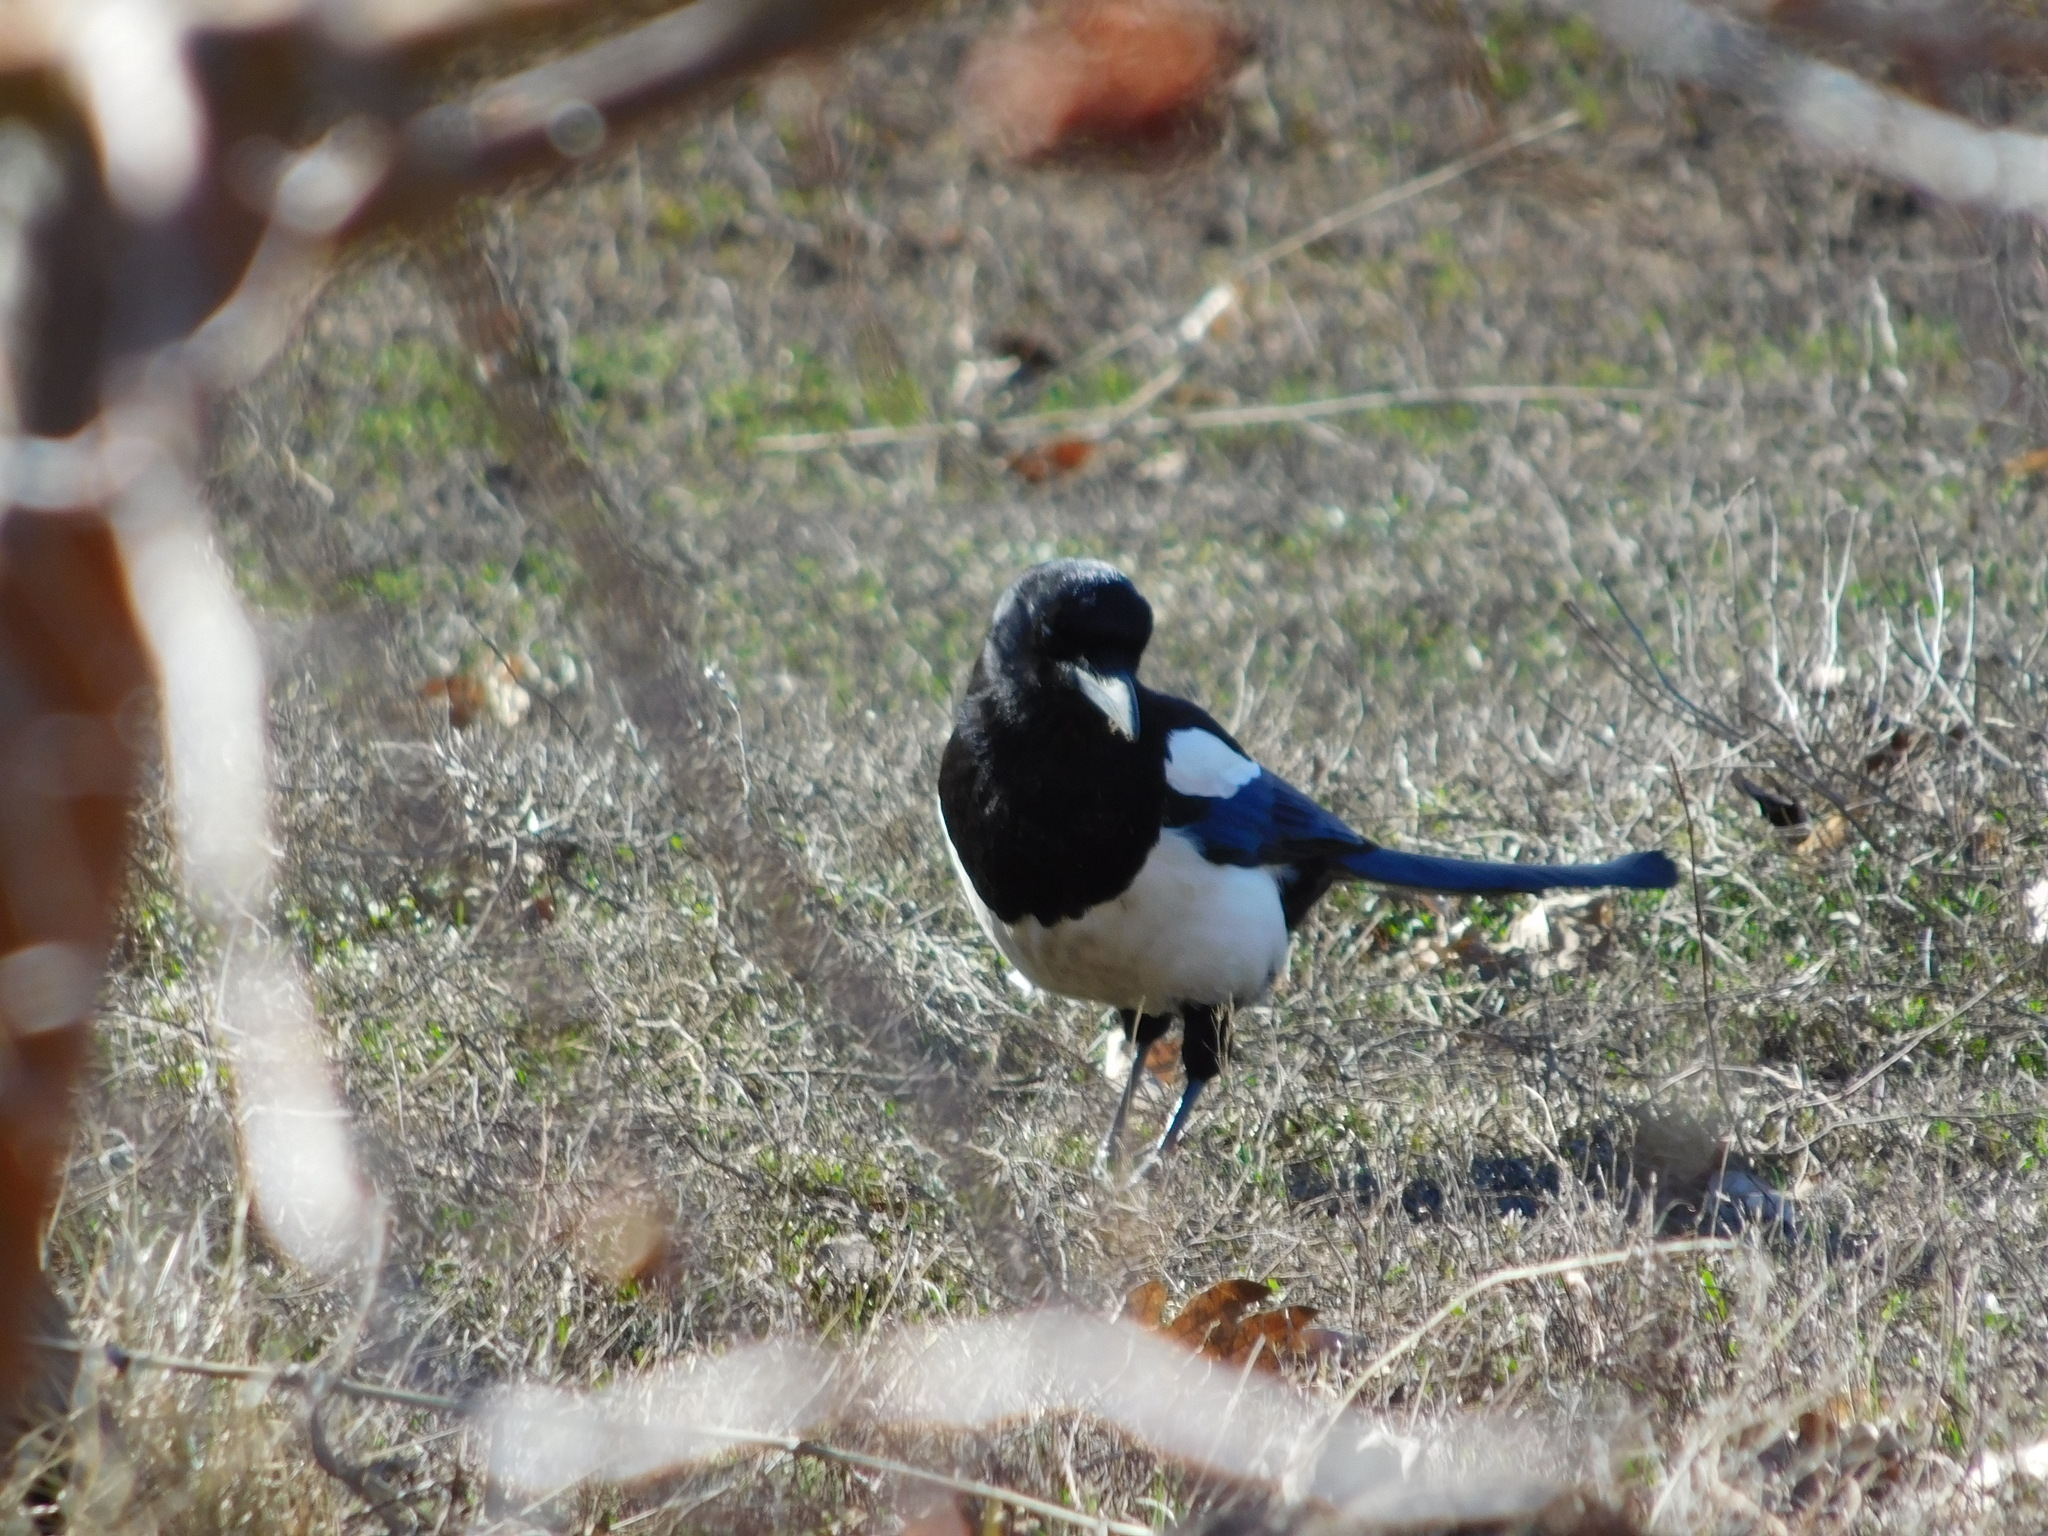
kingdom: Animalia
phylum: Chordata
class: Aves
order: Passeriformes
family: Corvidae
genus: Pica
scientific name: Pica pica
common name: Eurasian magpie
